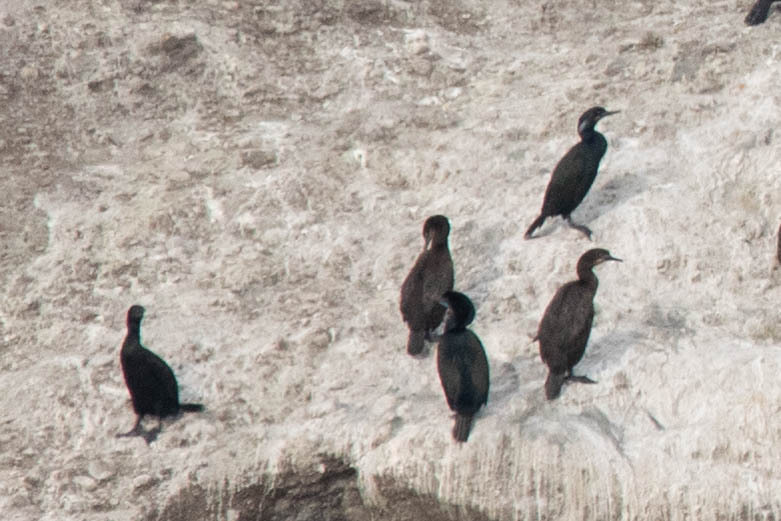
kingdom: Animalia
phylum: Chordata
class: Aves
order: Suliformes
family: Phalacrocoracidae
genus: Urile
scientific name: Urile penicillatus
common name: Brandt's cormorant
